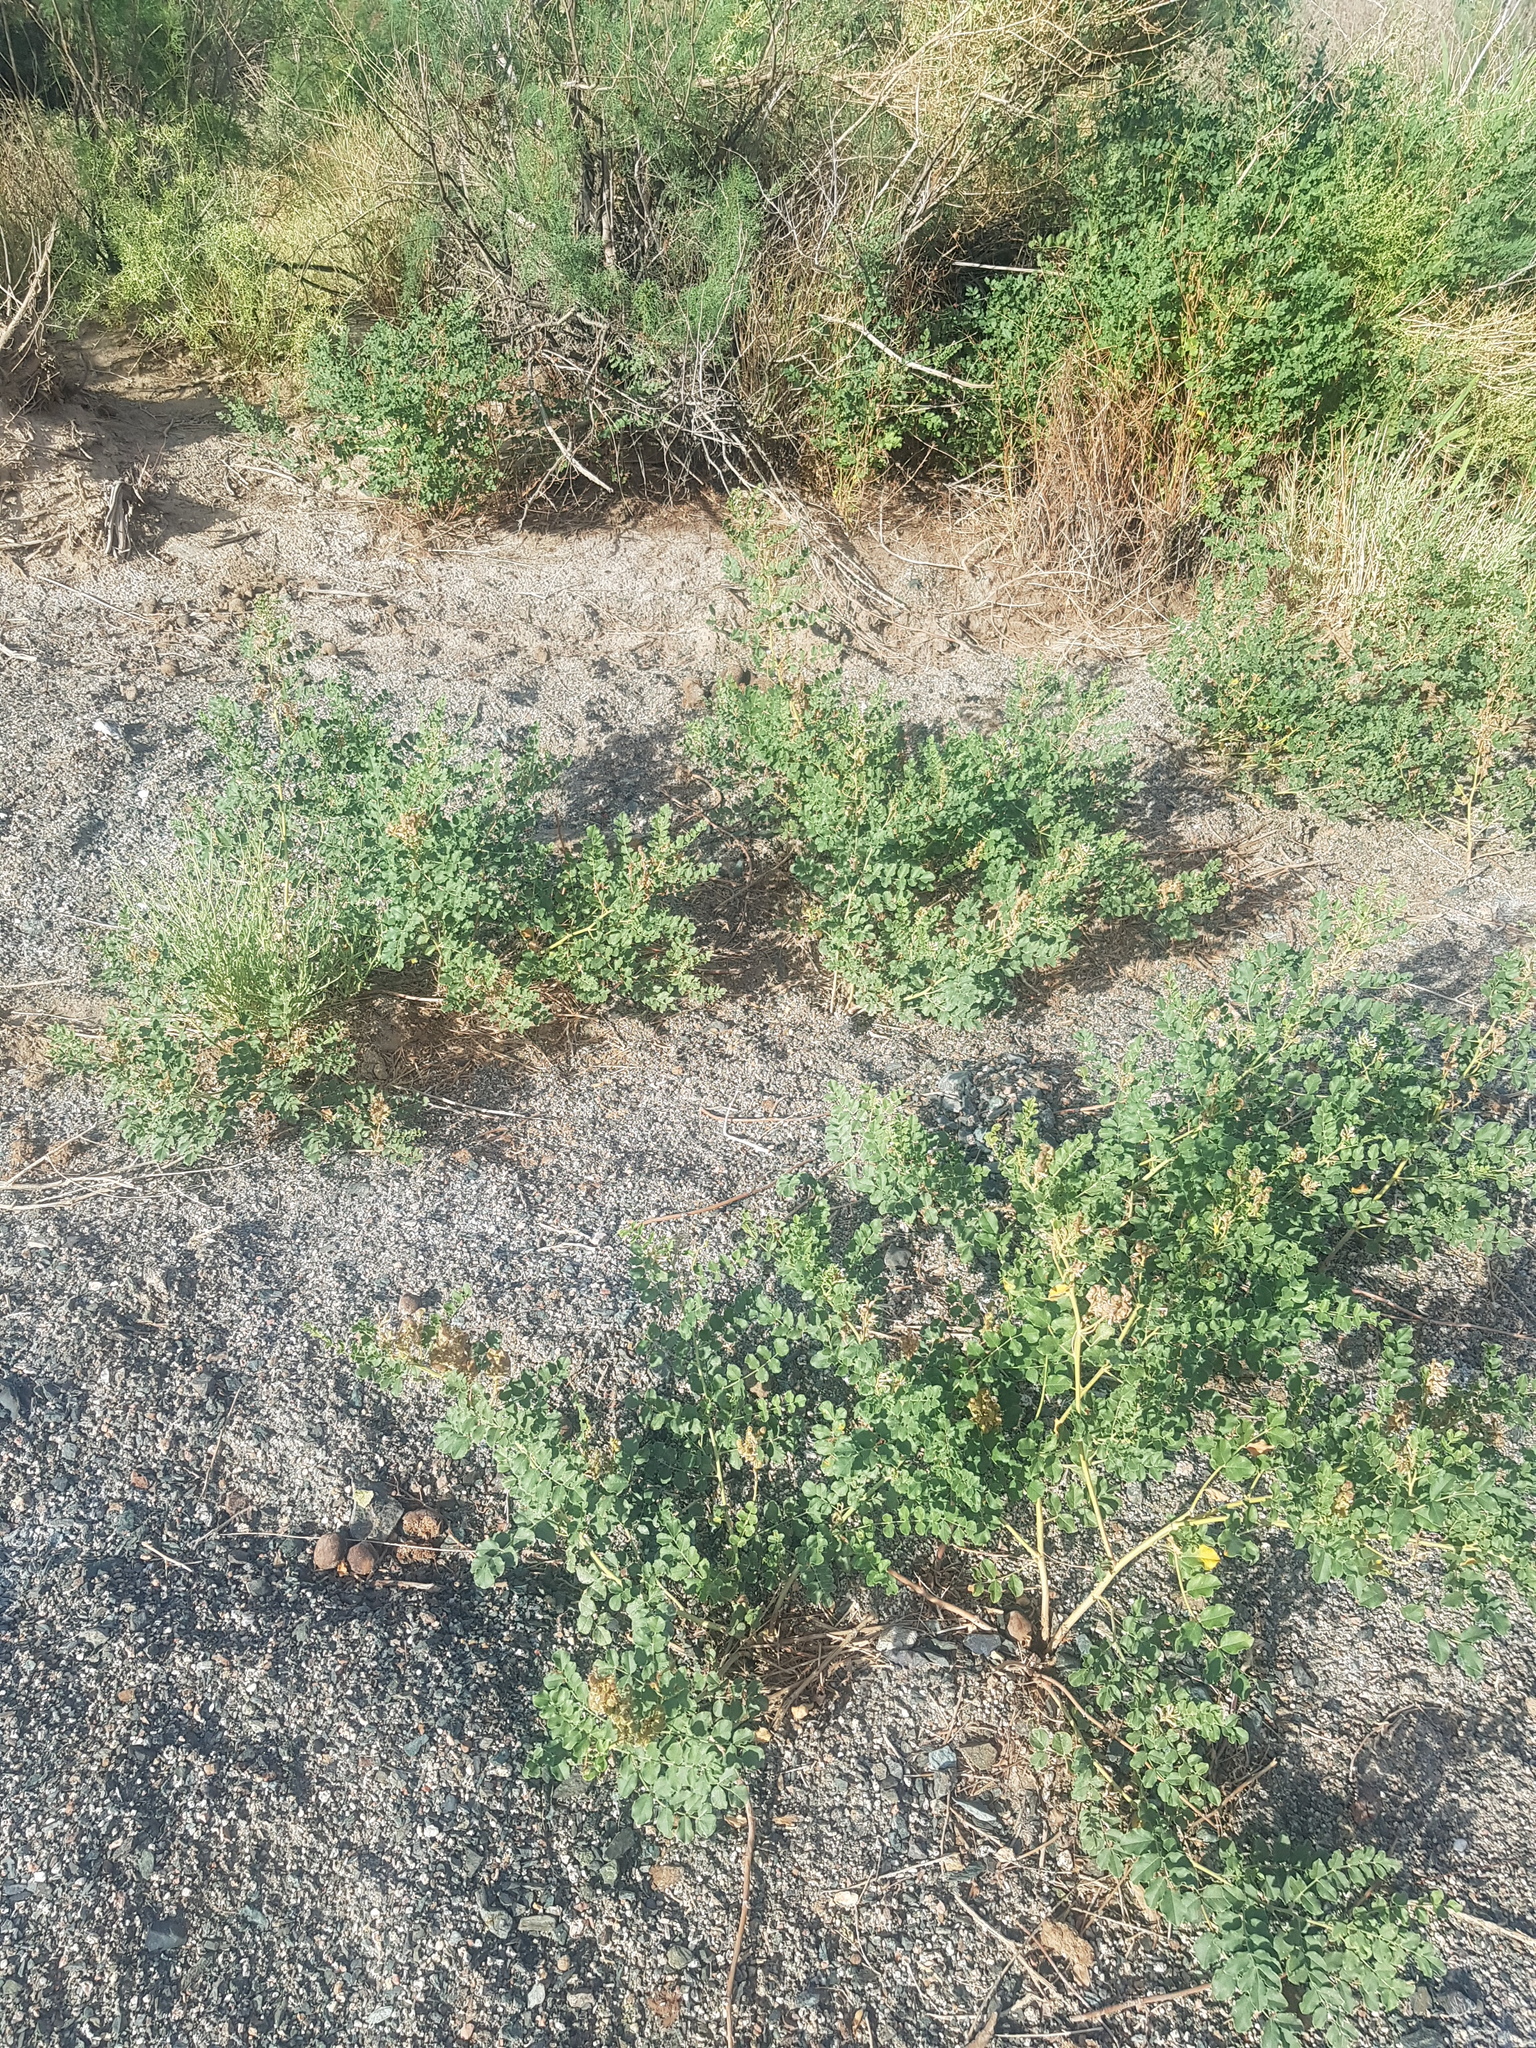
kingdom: Plantae
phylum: Tracheophyta
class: Magnoliopsida
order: Fabales
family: Fabaceae
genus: Glycyrrhiza
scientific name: Glycyrrhiza uralensis
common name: Chinese licorice
